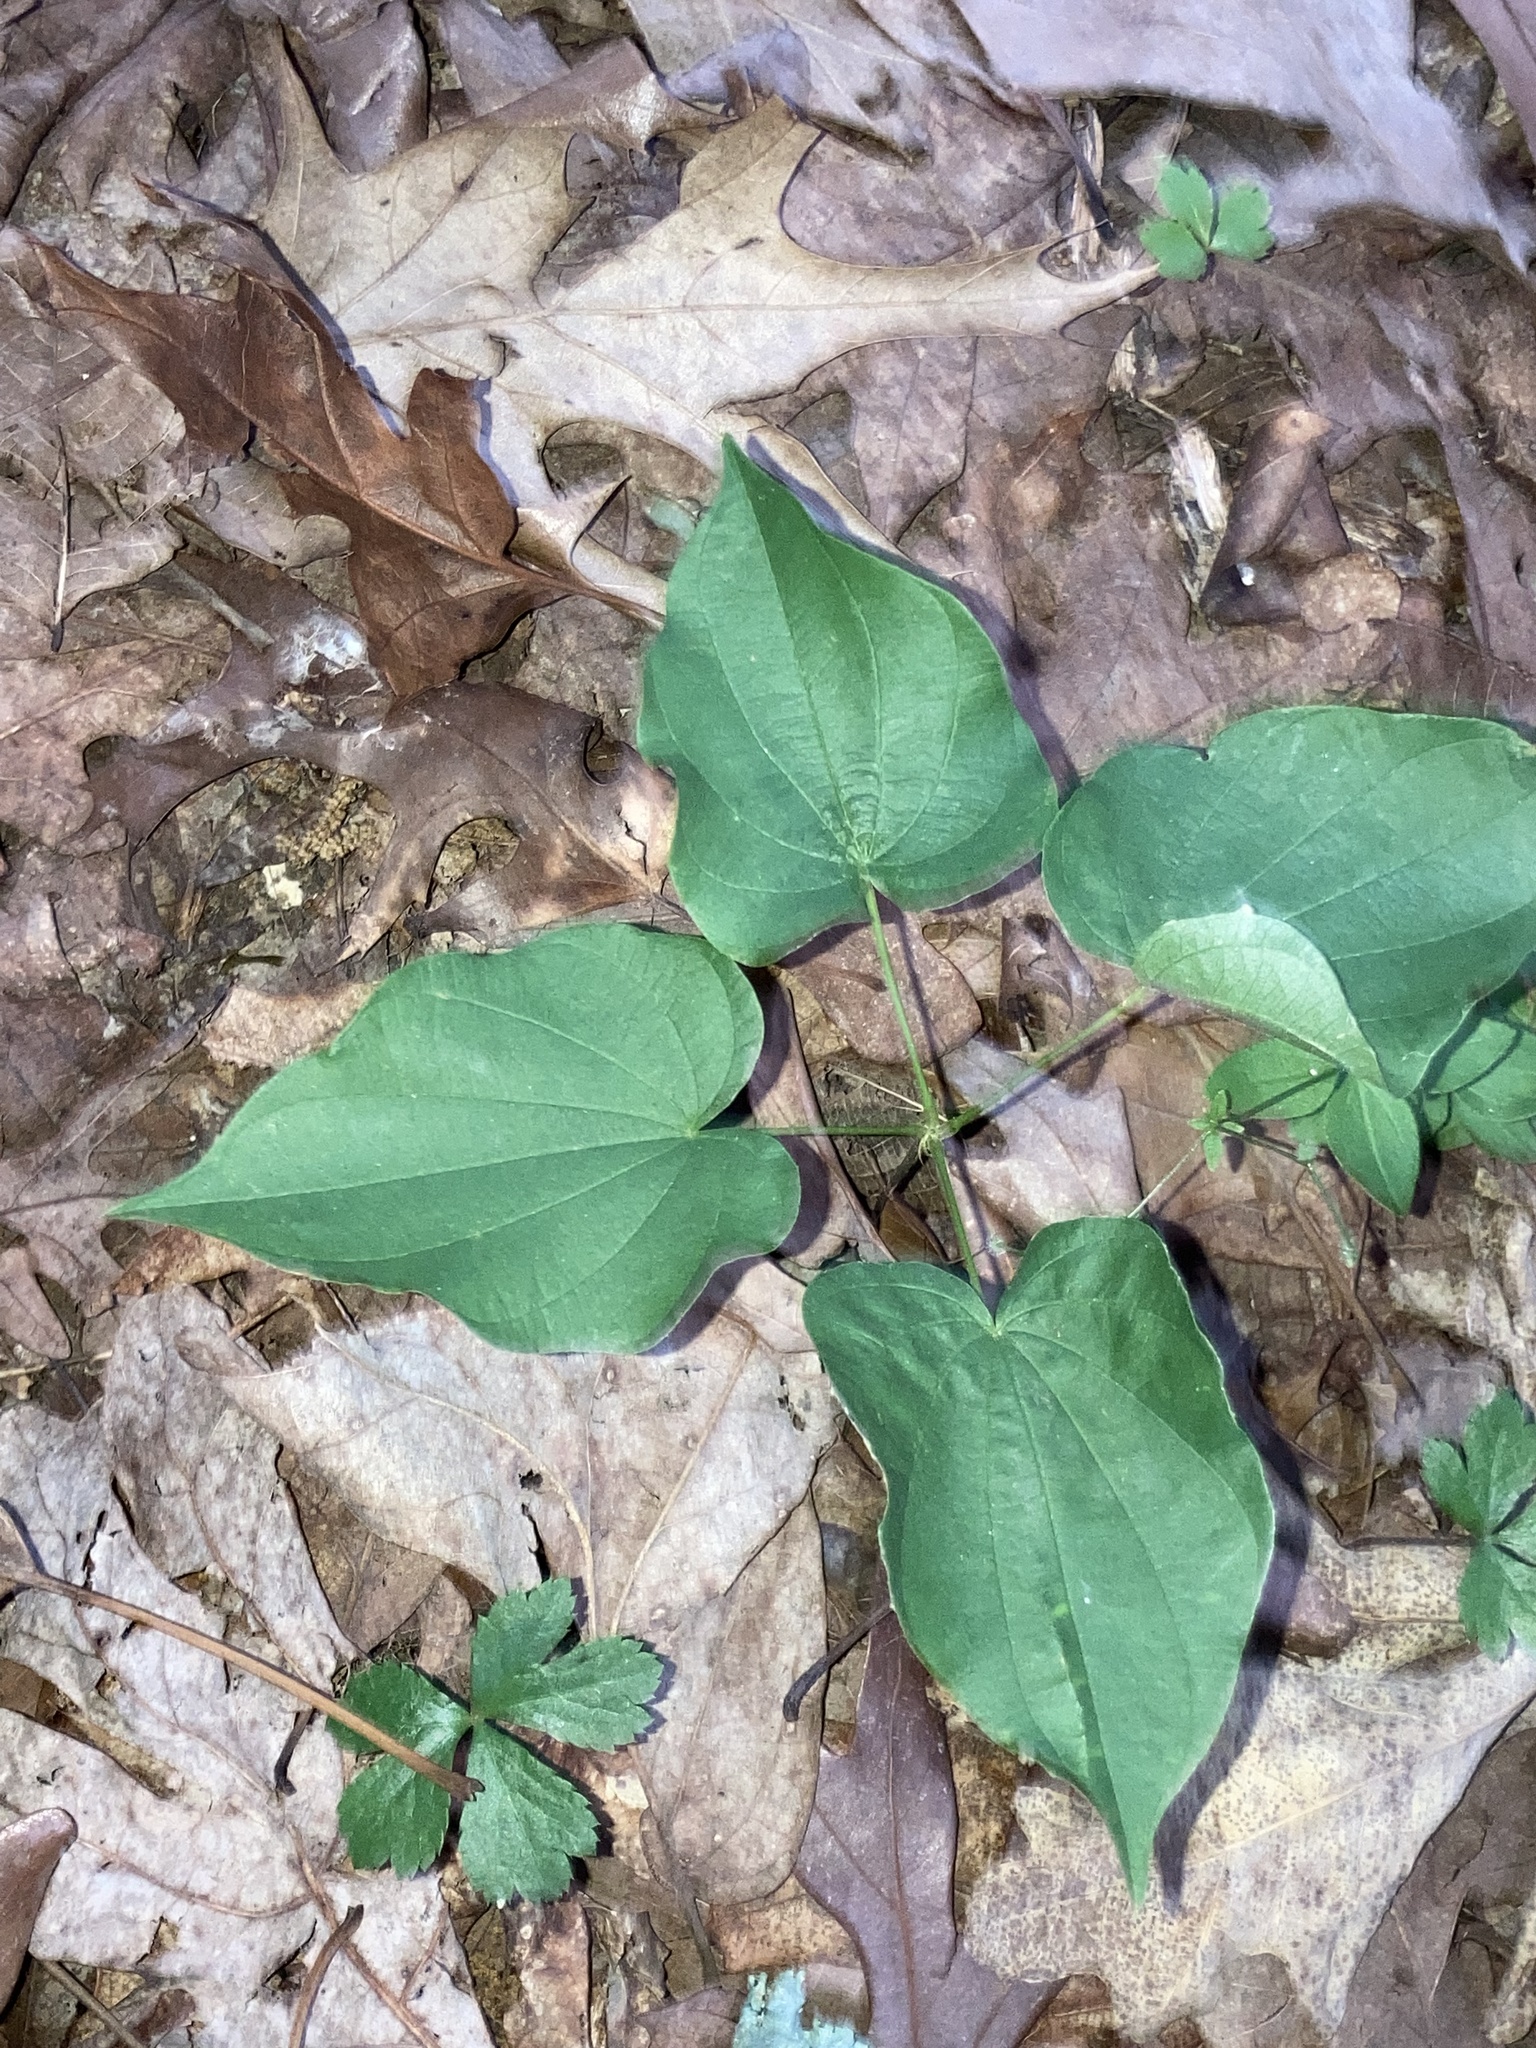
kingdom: Plantae
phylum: Tracheophyta
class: Liliopsida
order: Dioscoreales
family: Dioscoreaceae
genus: Dioscorea
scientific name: Dioscorea villosa
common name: Wild yam
